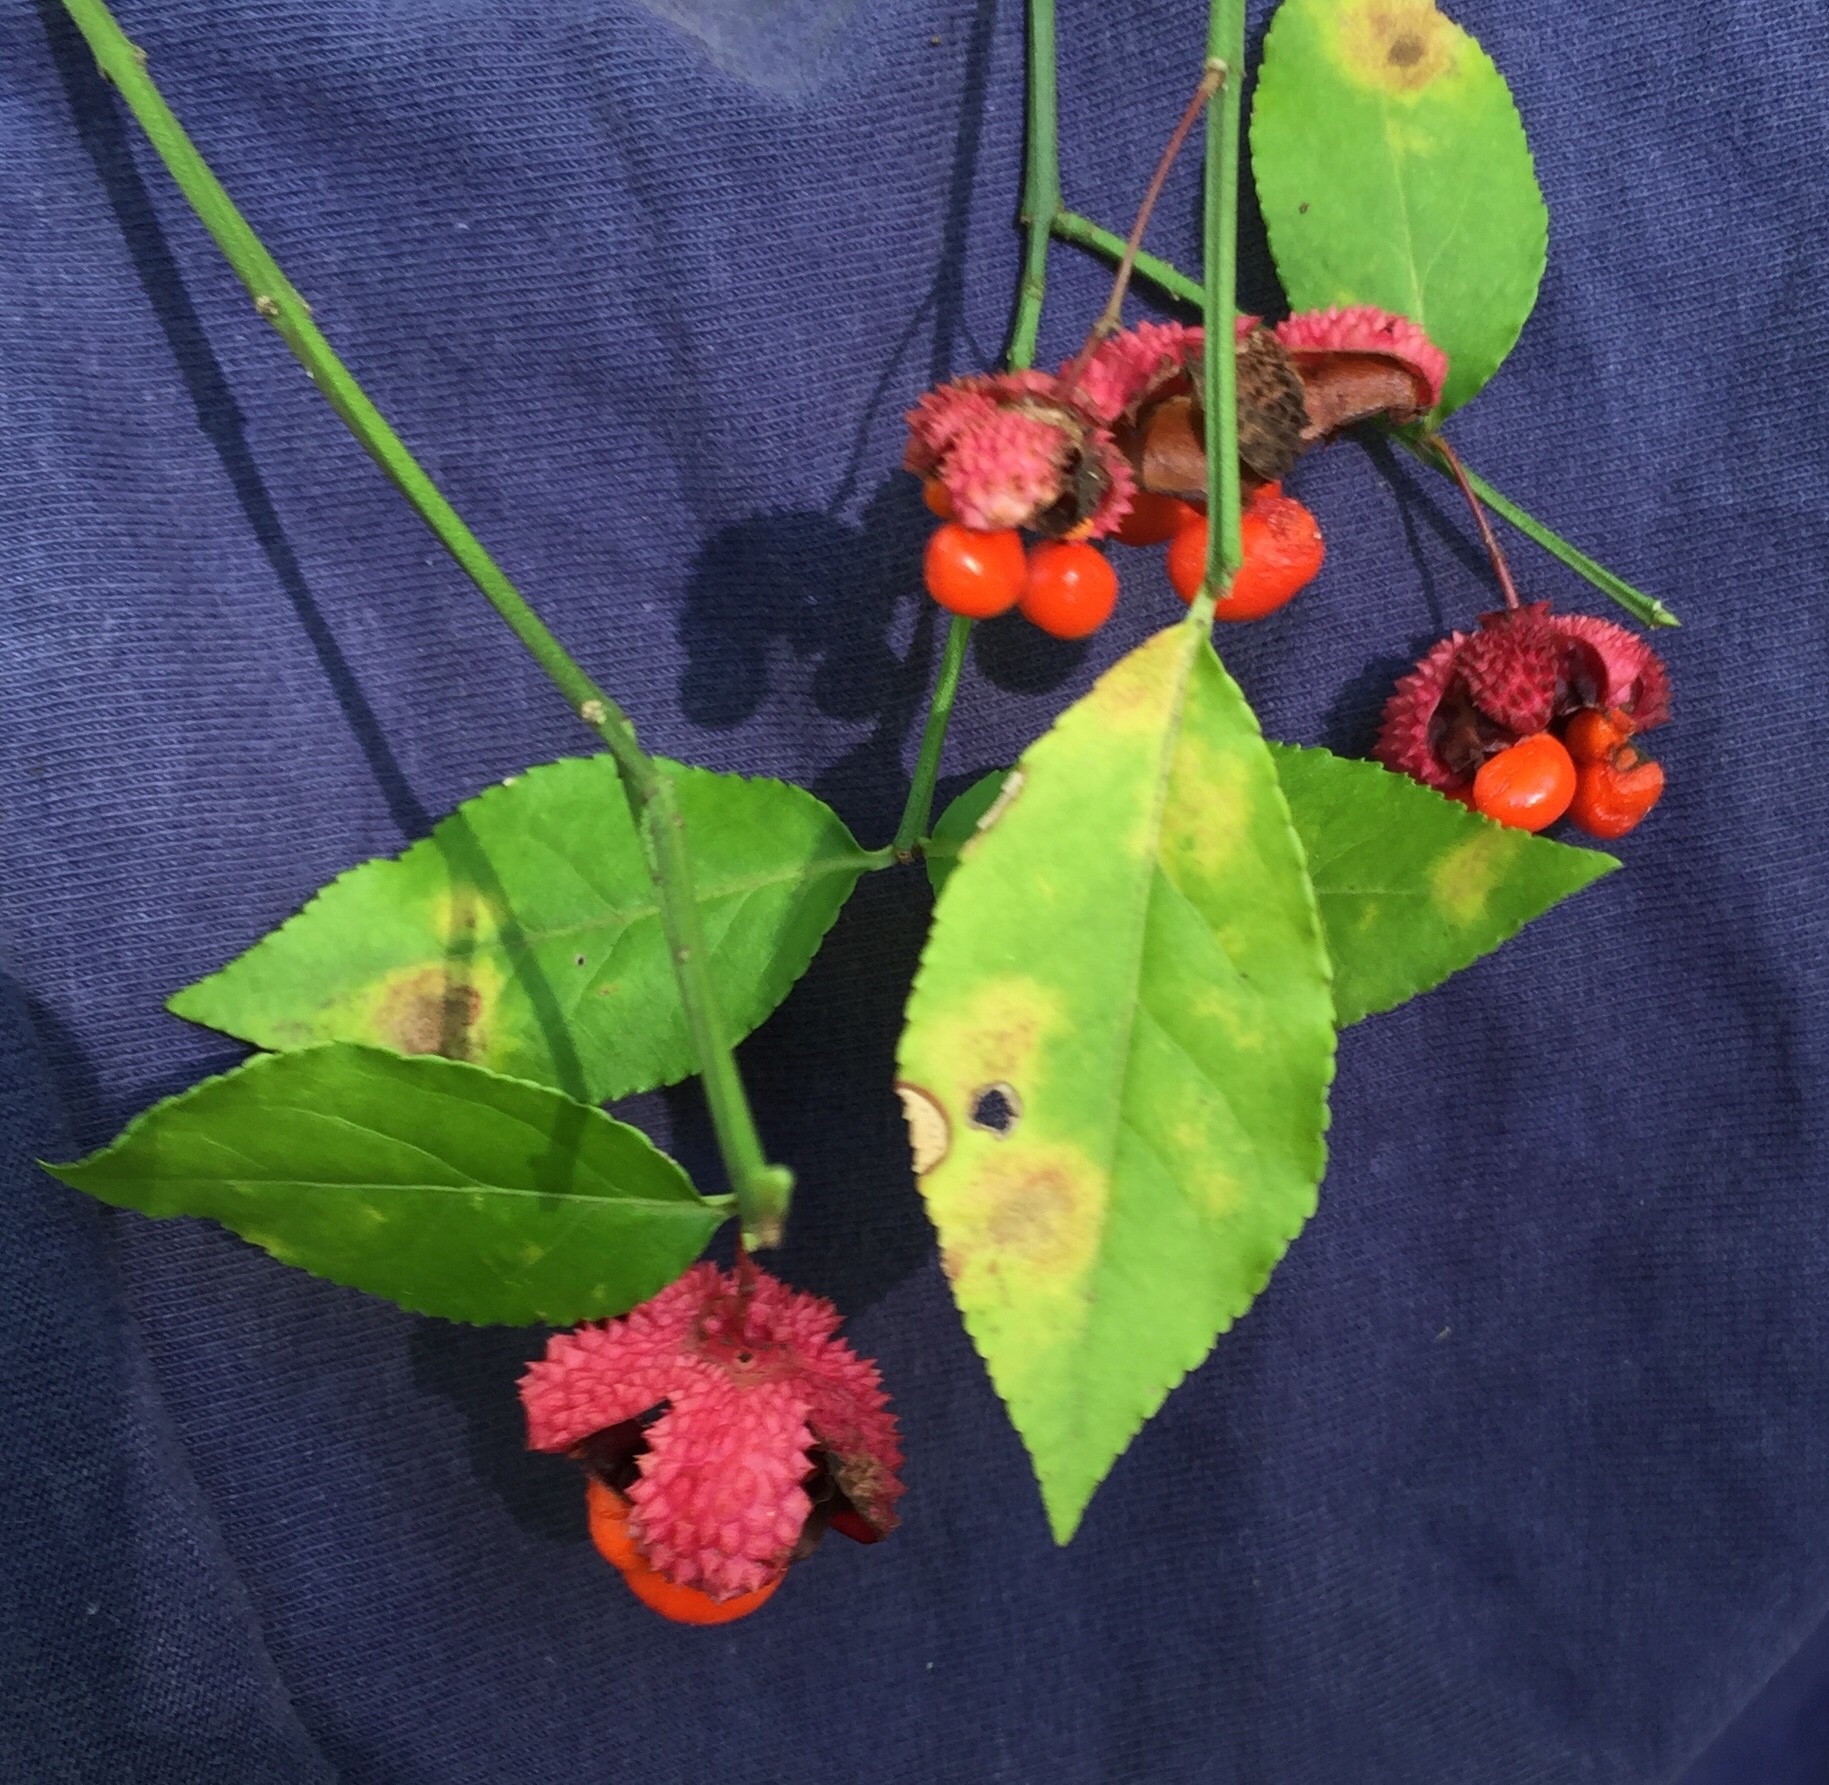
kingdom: Plantae
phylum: Tracheophyta
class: Magnoliopsida
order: Celastrales
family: Celastraceae
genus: Euonymus
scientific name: Euonymus americanus
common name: Bursting-heart
